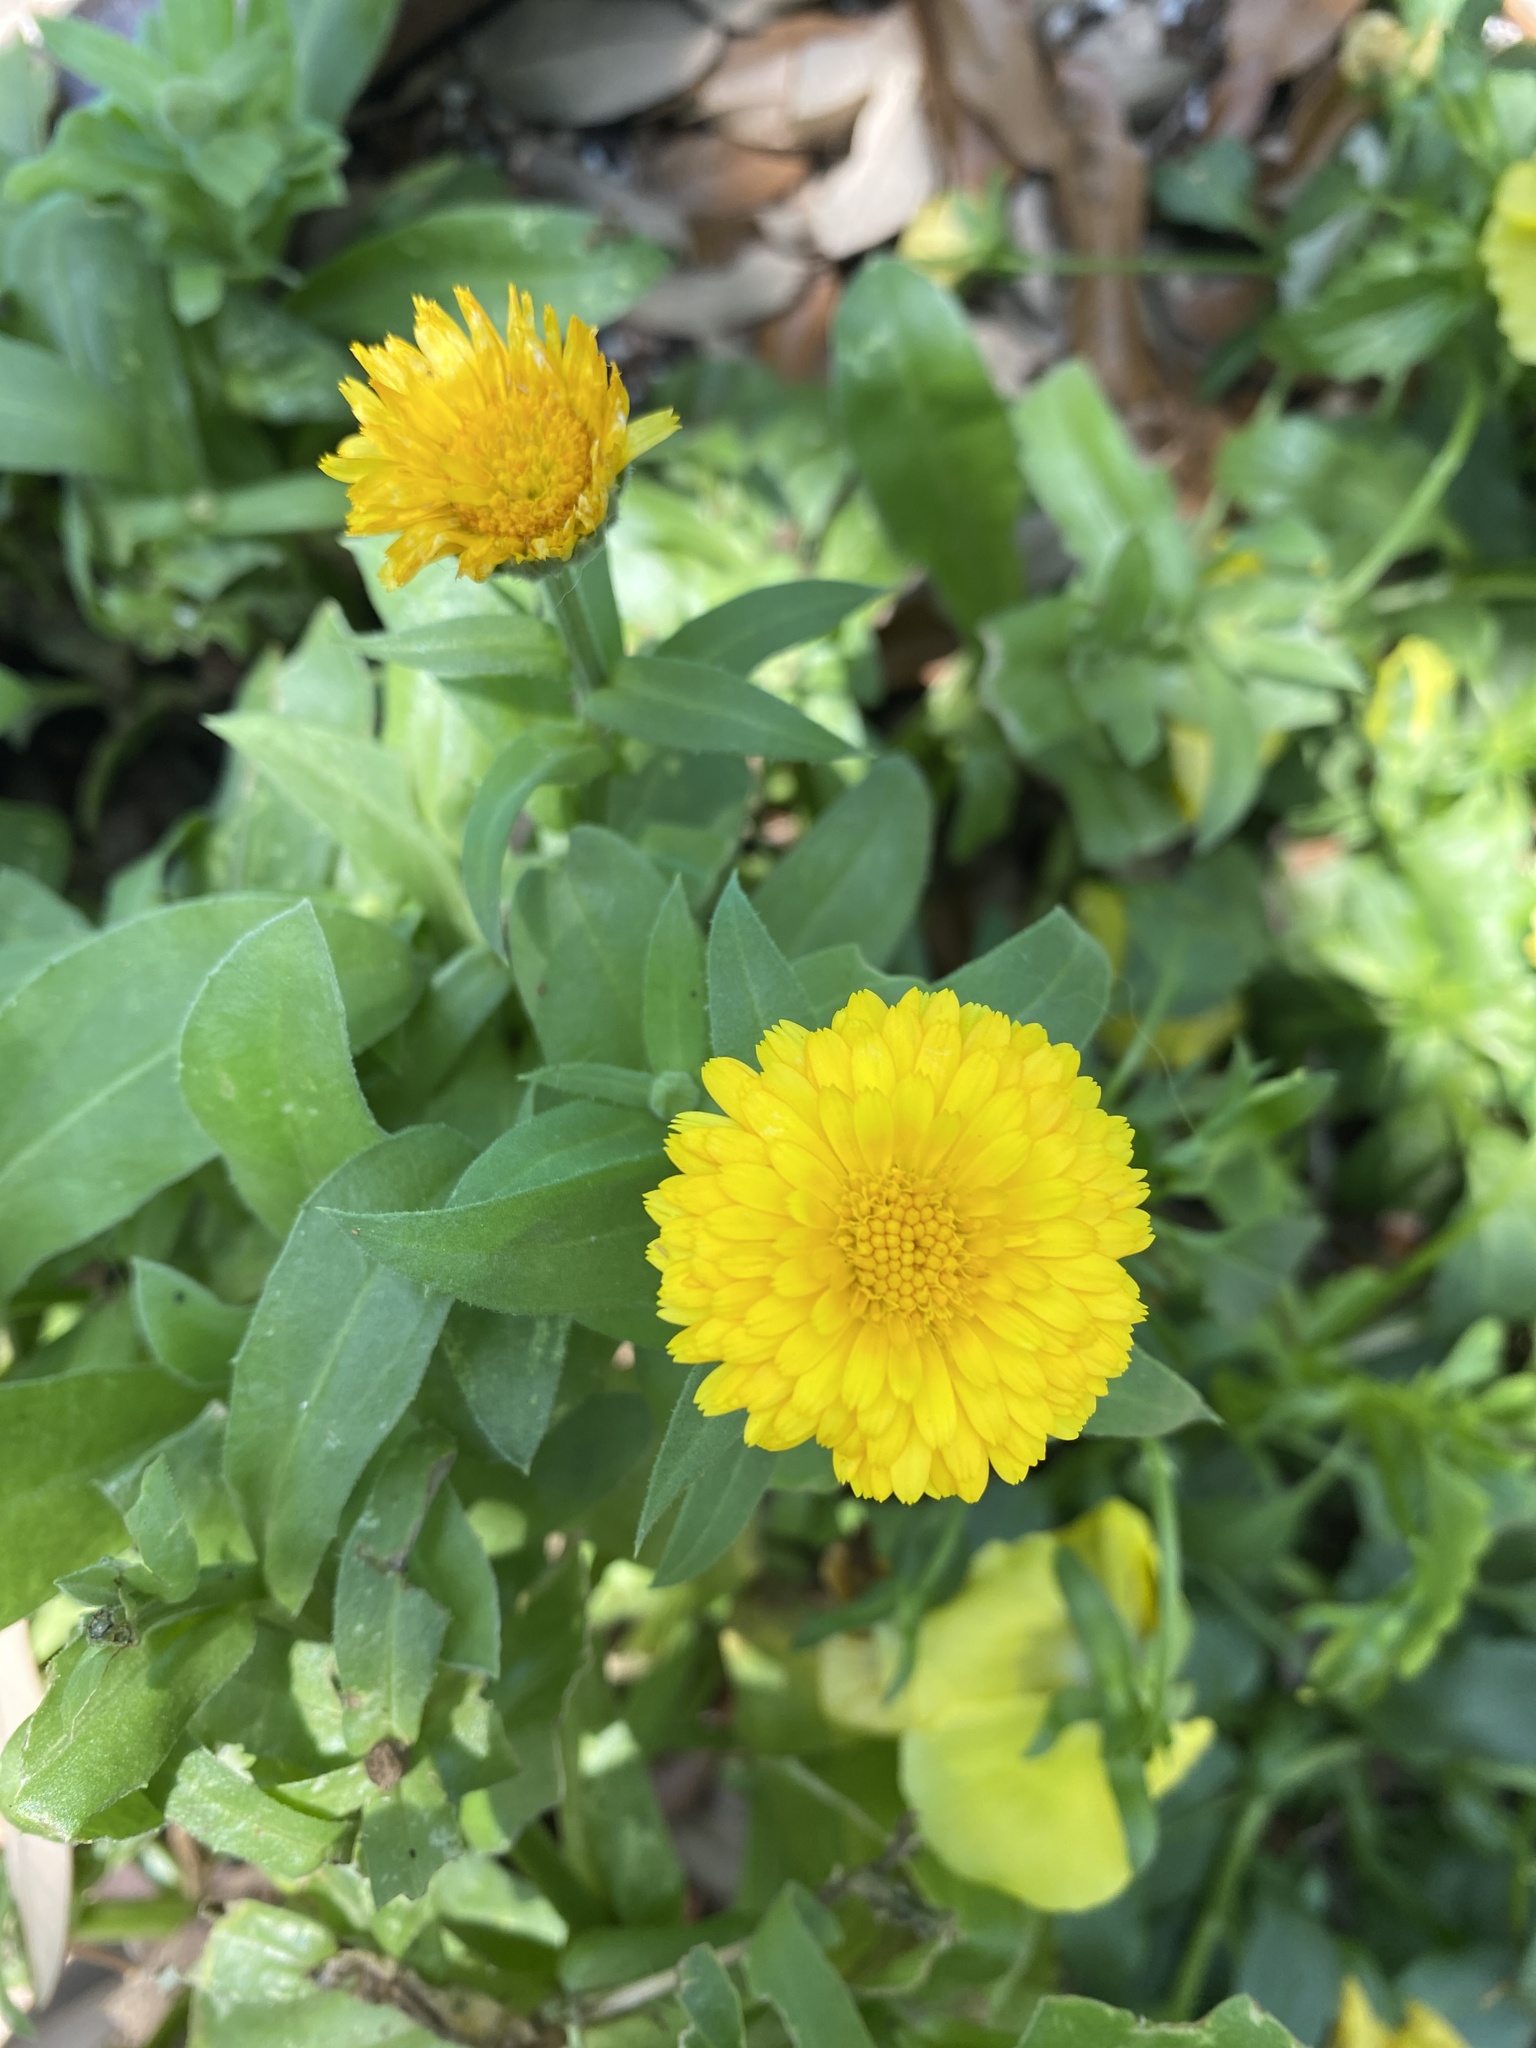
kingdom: Plantae
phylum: Tracheophyta
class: Magnoliopsida
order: Asterales
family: Asteraceae
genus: Calendula
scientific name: Calendula officinalis
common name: Pot marigold
